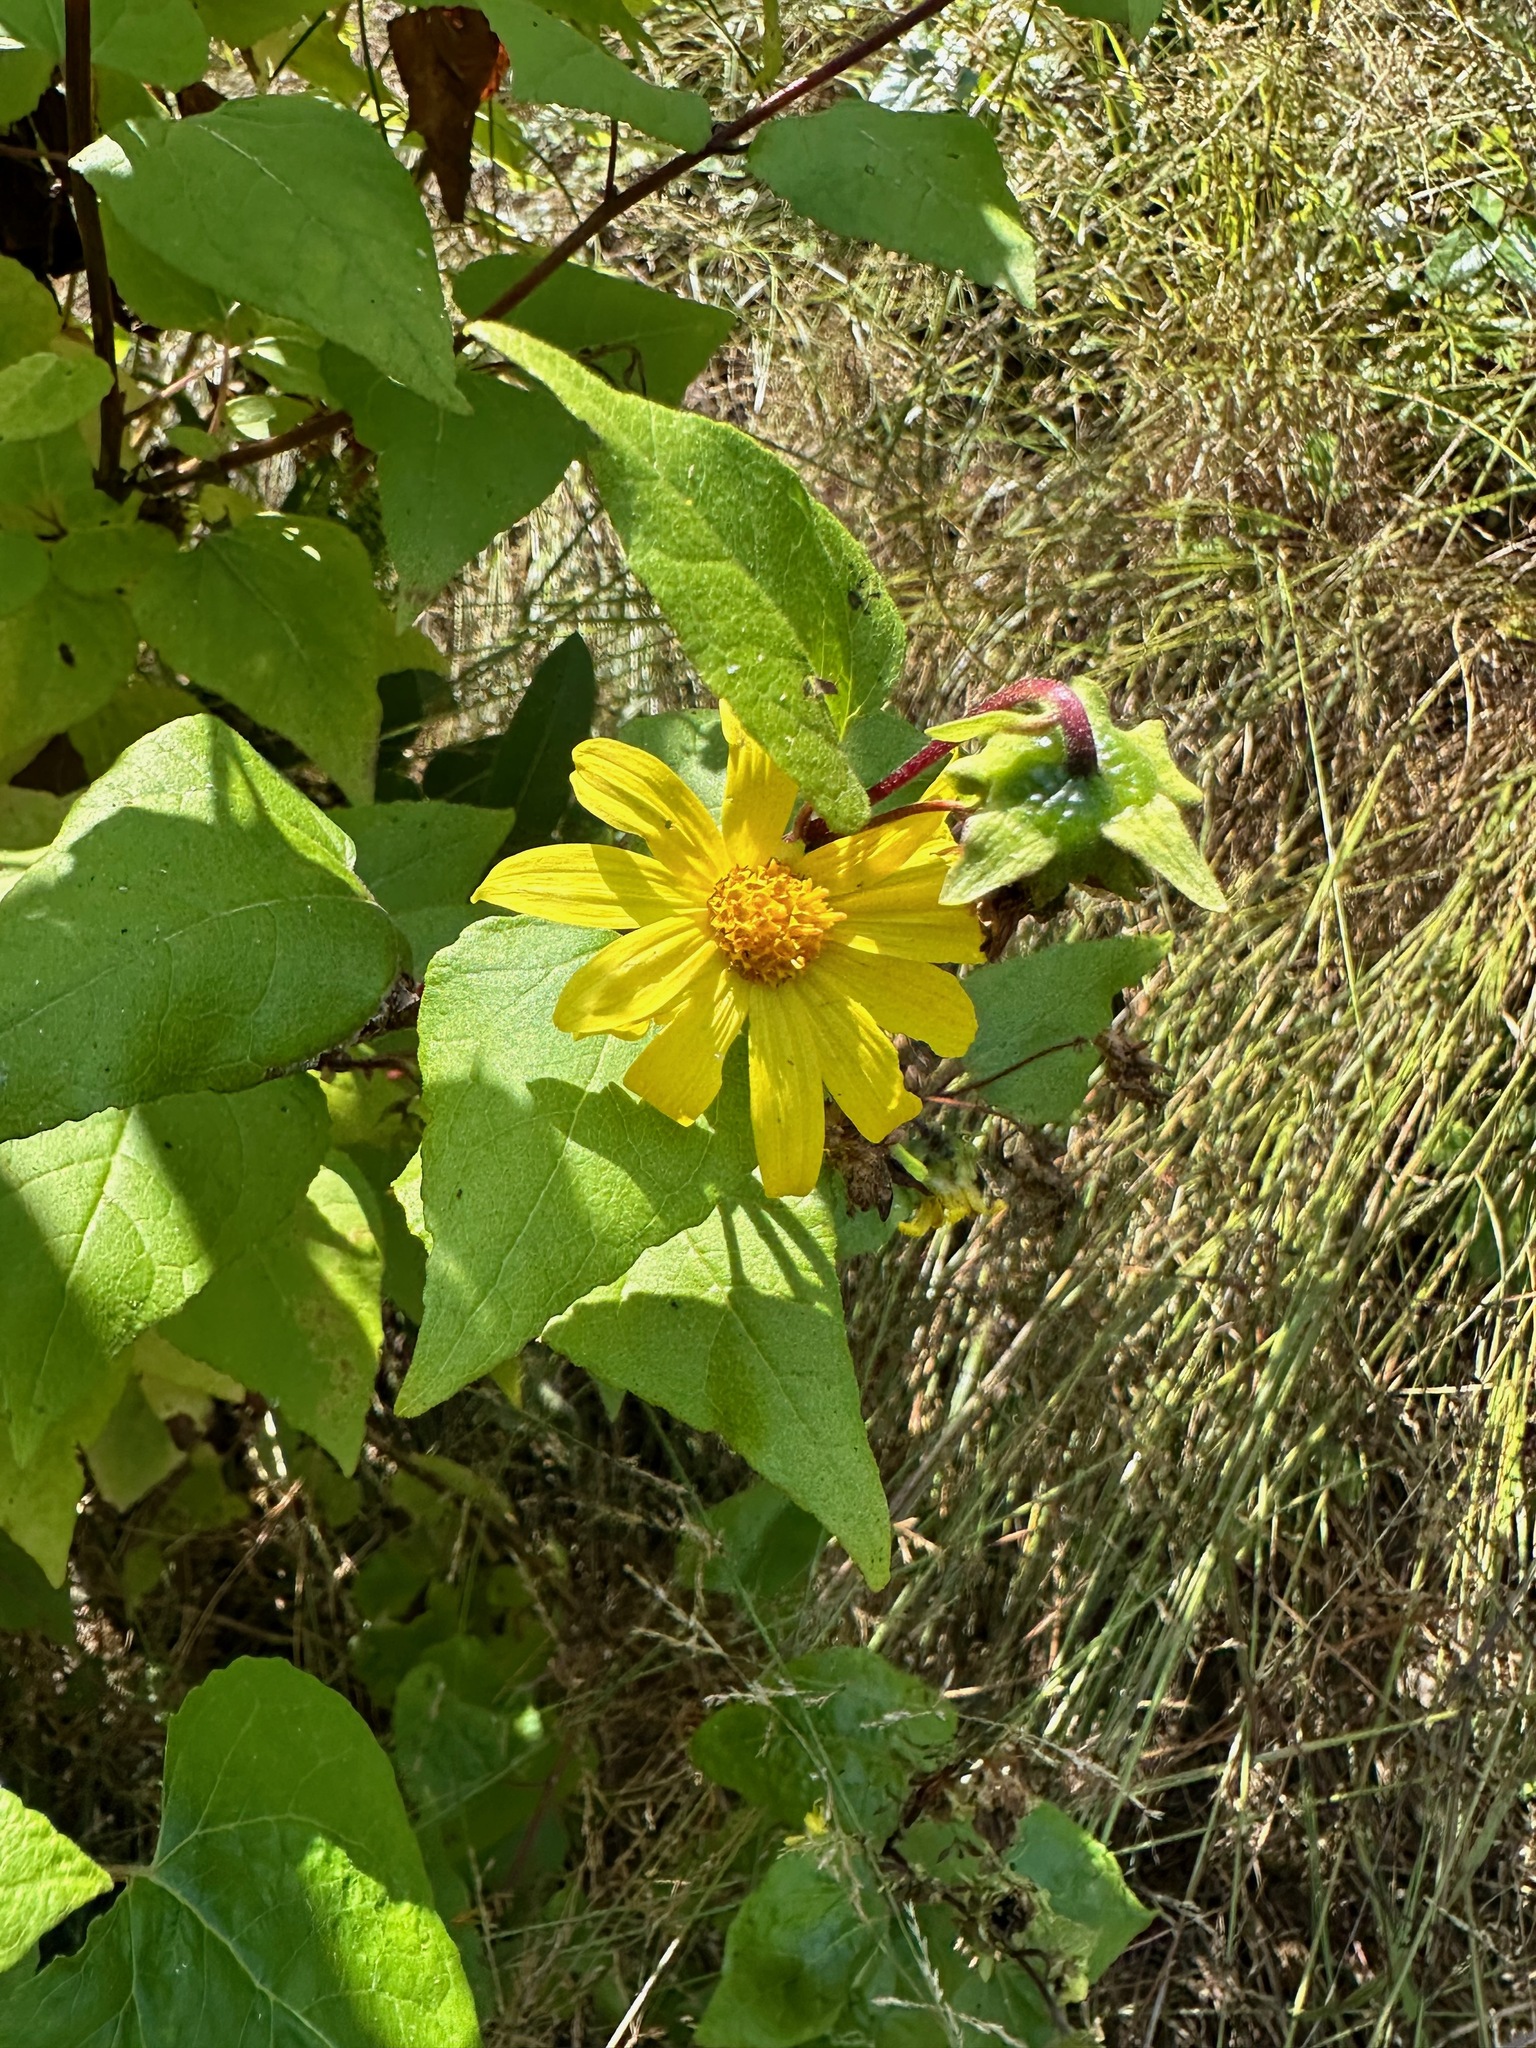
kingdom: Plantae
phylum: Tracheophyta
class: Magnoliopsida
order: Asterales
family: Asteraceae
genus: Venegasia
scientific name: Venegasia carpesioides
